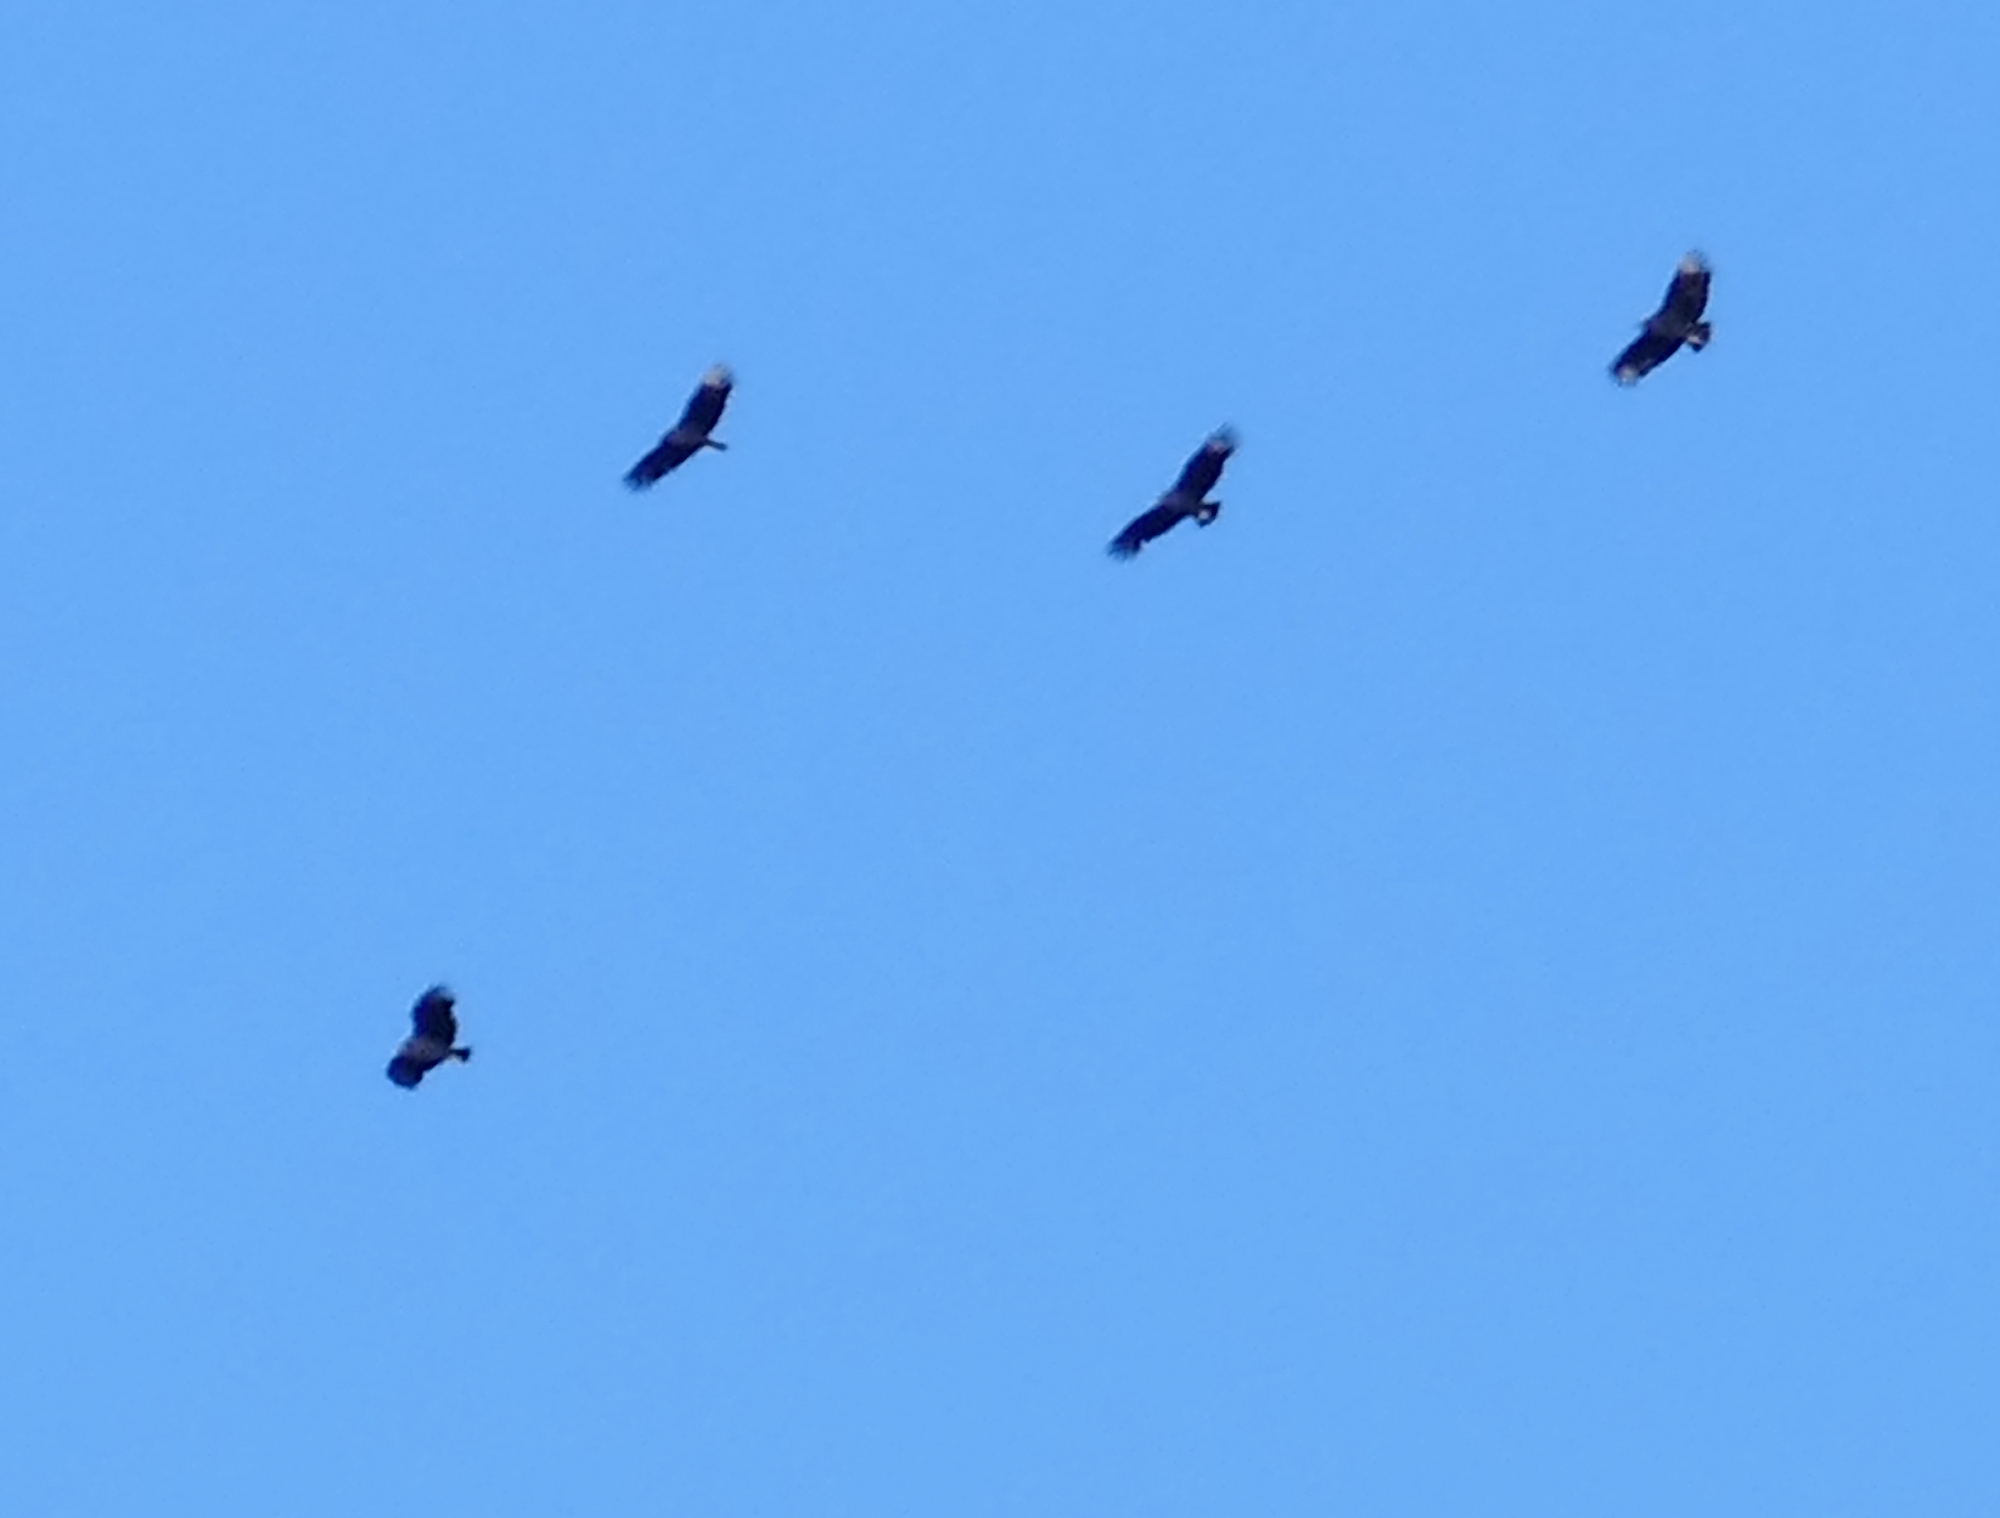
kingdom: Animalia
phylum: Chordata
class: Aves
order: Accipitriformes
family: Cathartidae
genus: Coragyps
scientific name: Coragyps atratus
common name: Black vulture
